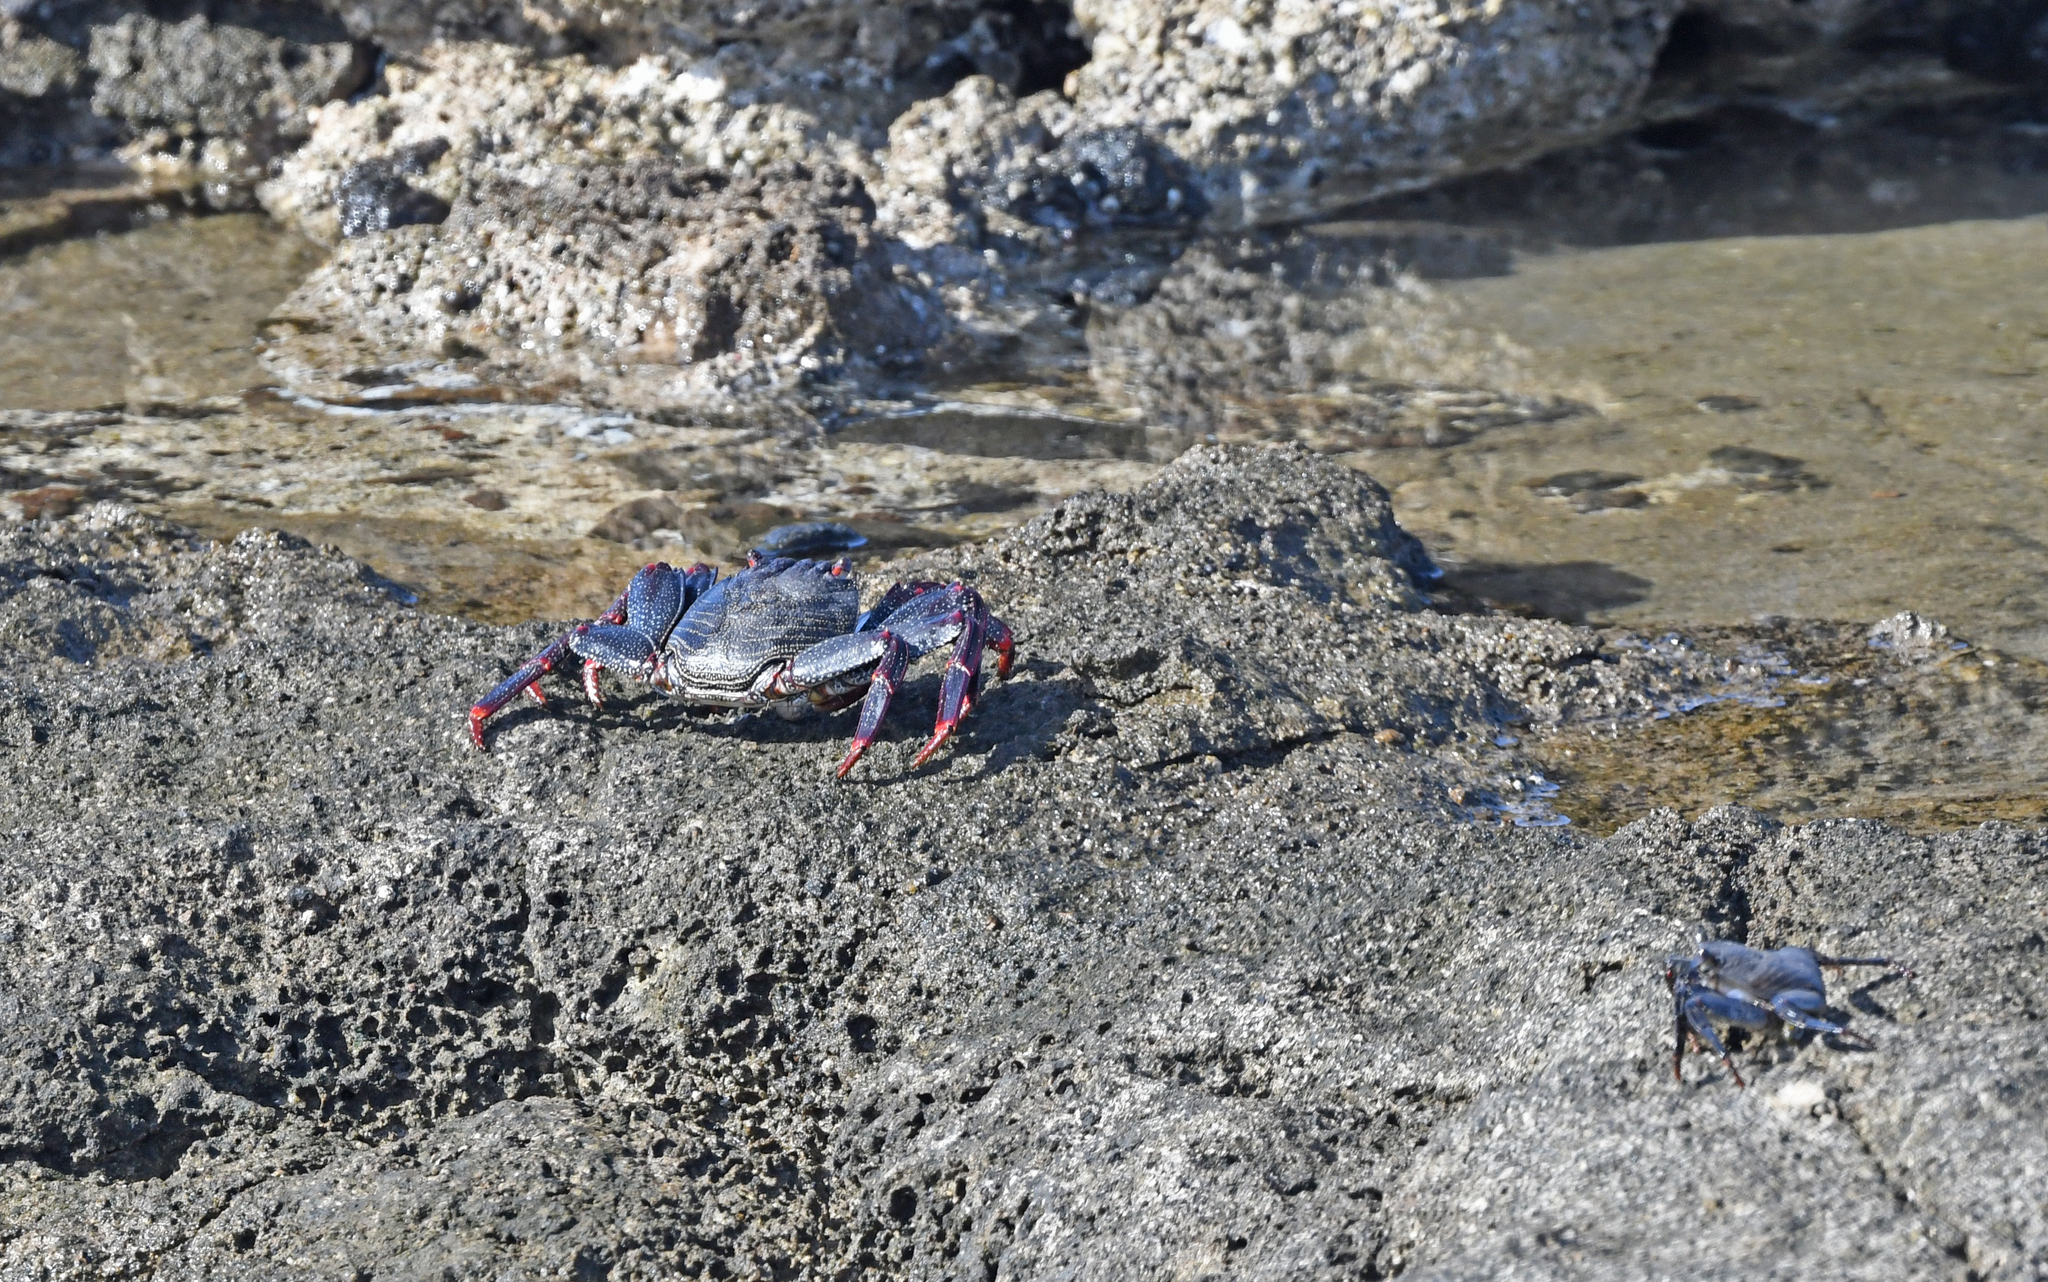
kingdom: Animalia
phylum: Arthropoda
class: Malacostraca
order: Decapoda
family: Grapsidae
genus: Grapsus
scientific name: Grapsus adscensionis
